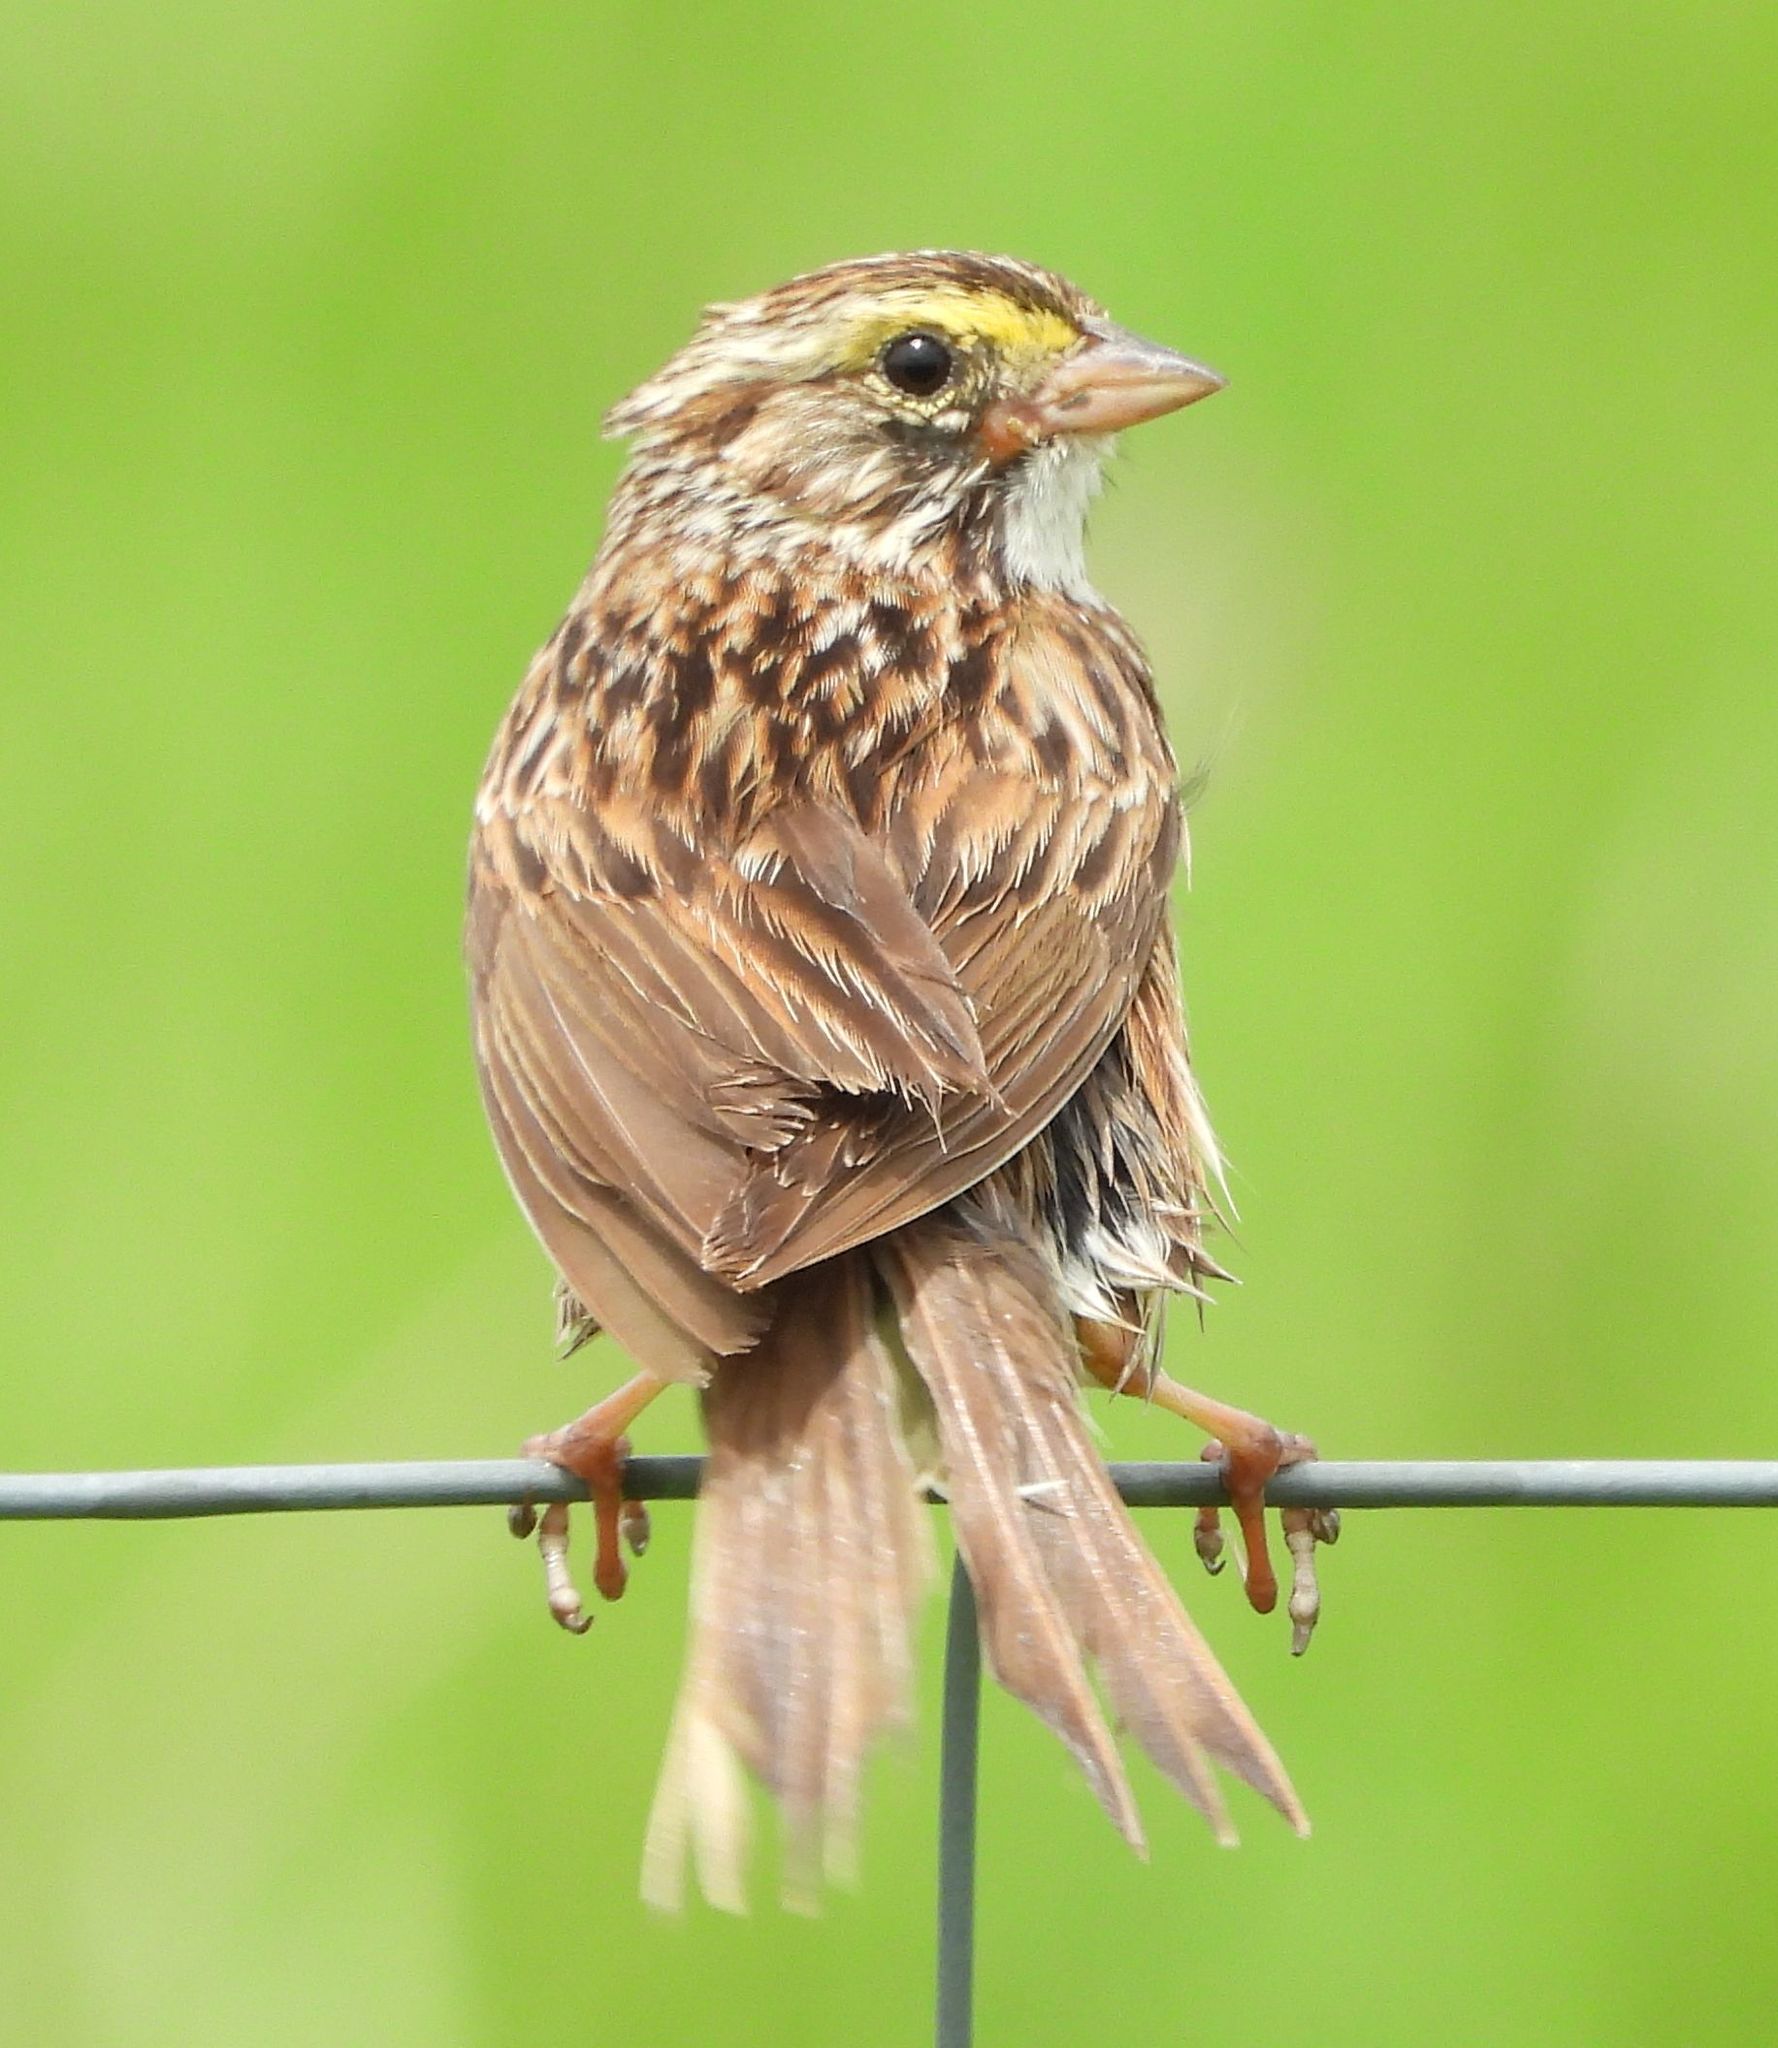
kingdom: Animalia
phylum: Chordata
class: Aves
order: Passeriformes
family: Passerellidae
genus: Passerculus
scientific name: Passerculus sandwichensis
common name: Savannah sparrow
